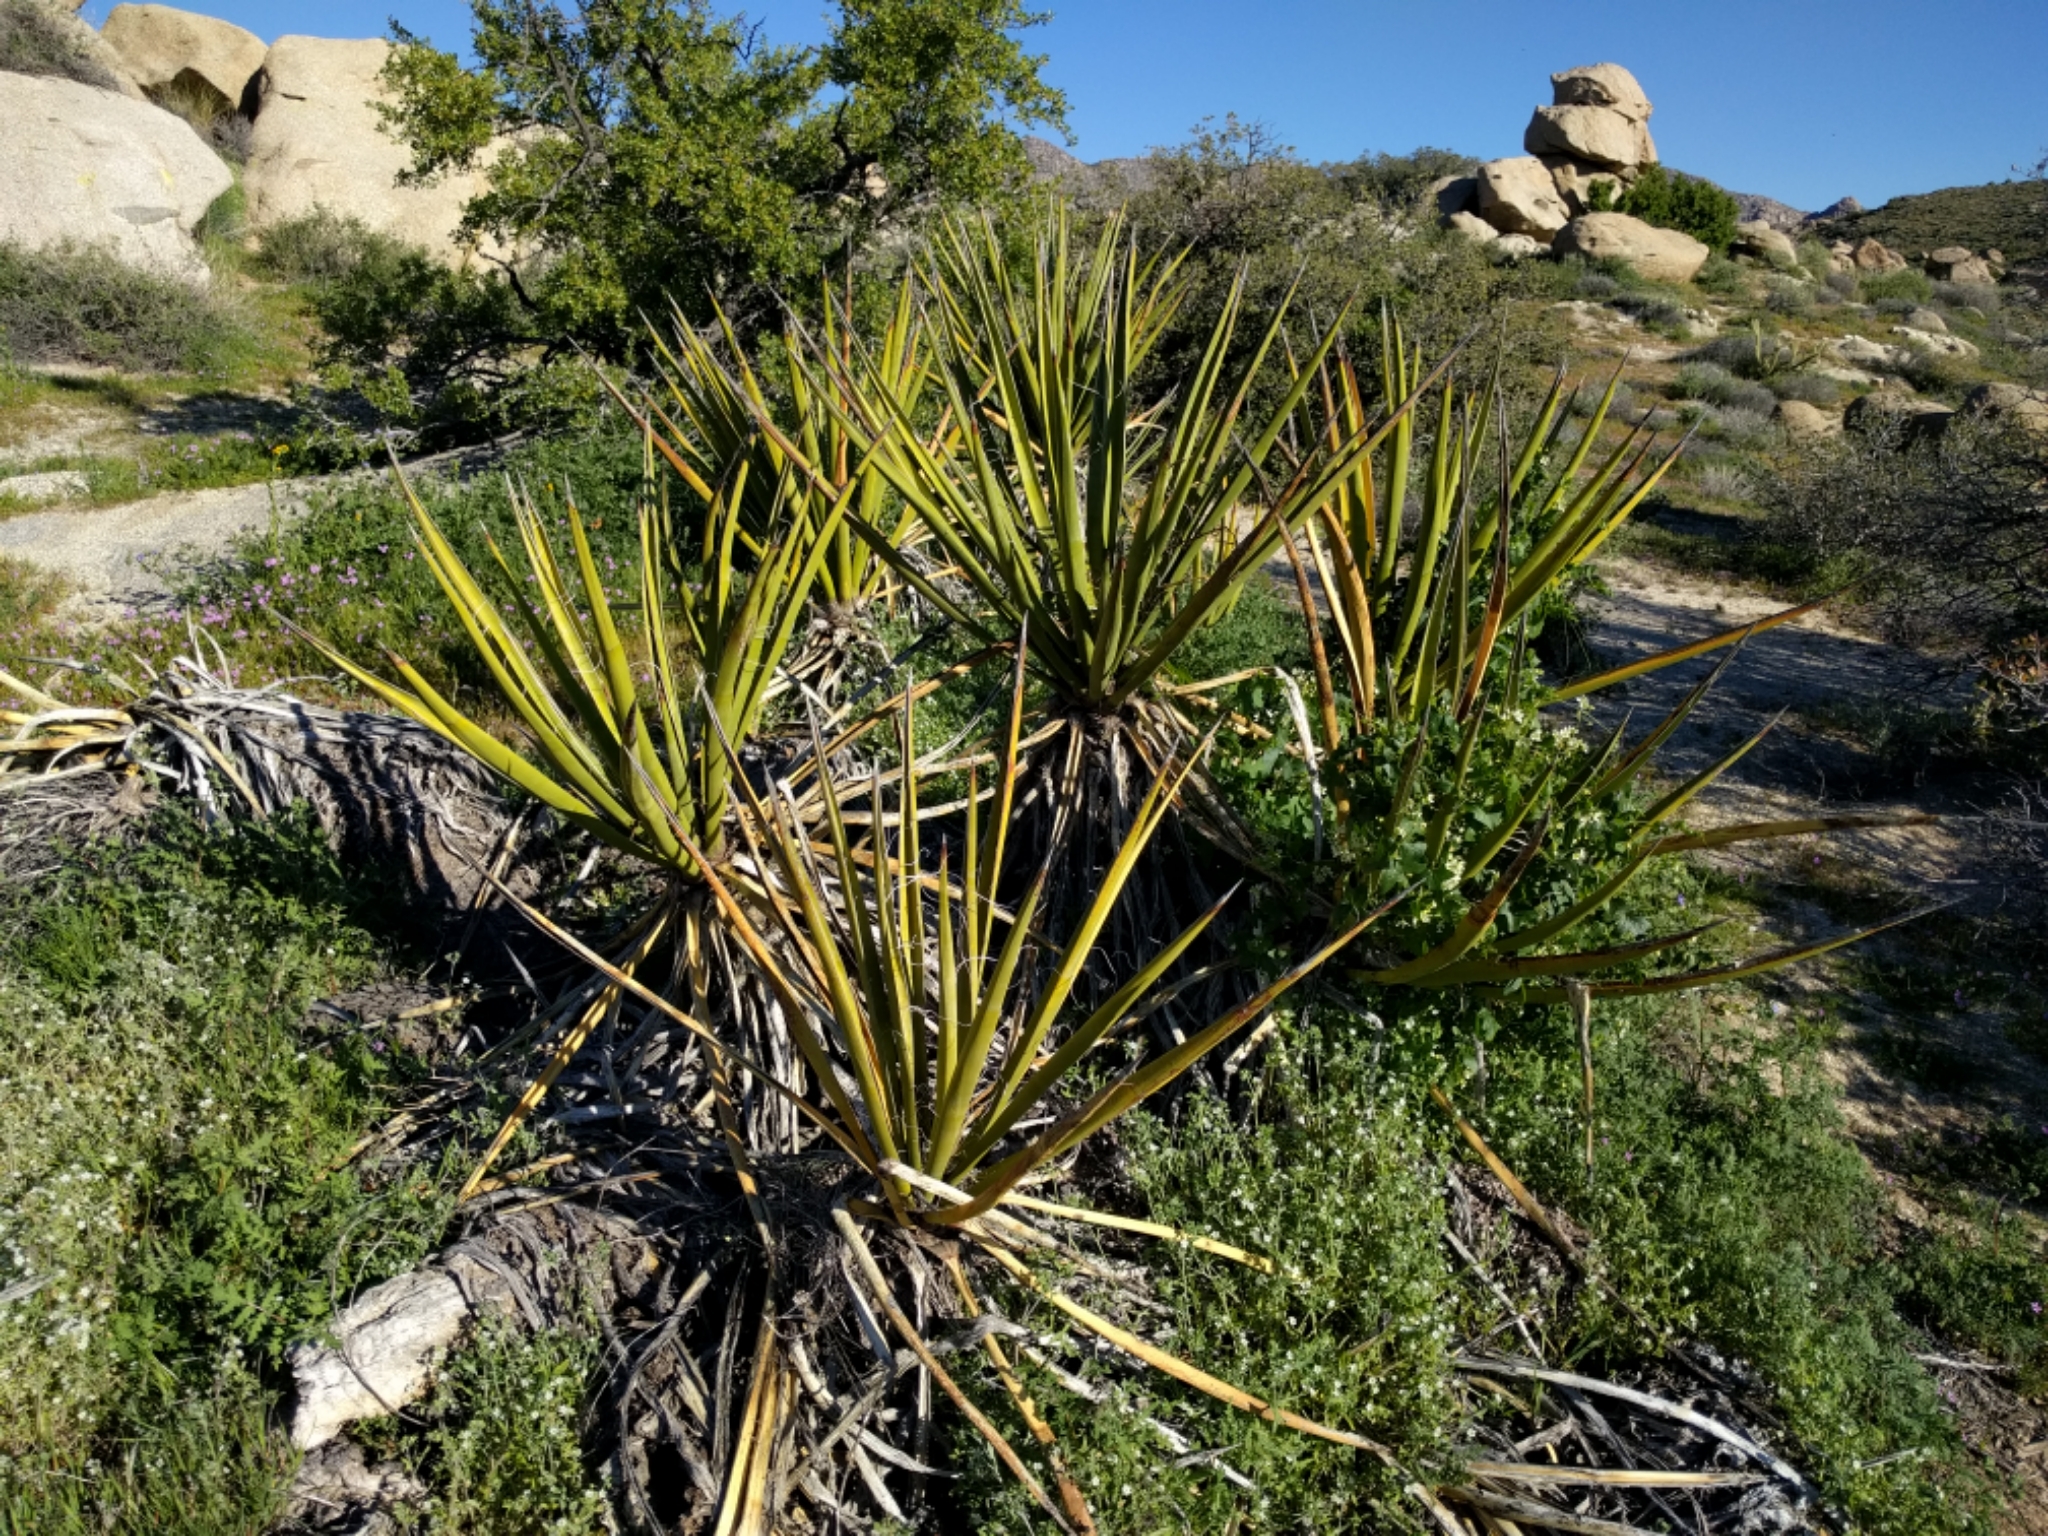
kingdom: Plantae
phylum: Tracheophyta
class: Liliopsida
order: Asparagales
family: Asparagaceae
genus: Yucca
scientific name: Yucca schidigera
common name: Mojave yucca
